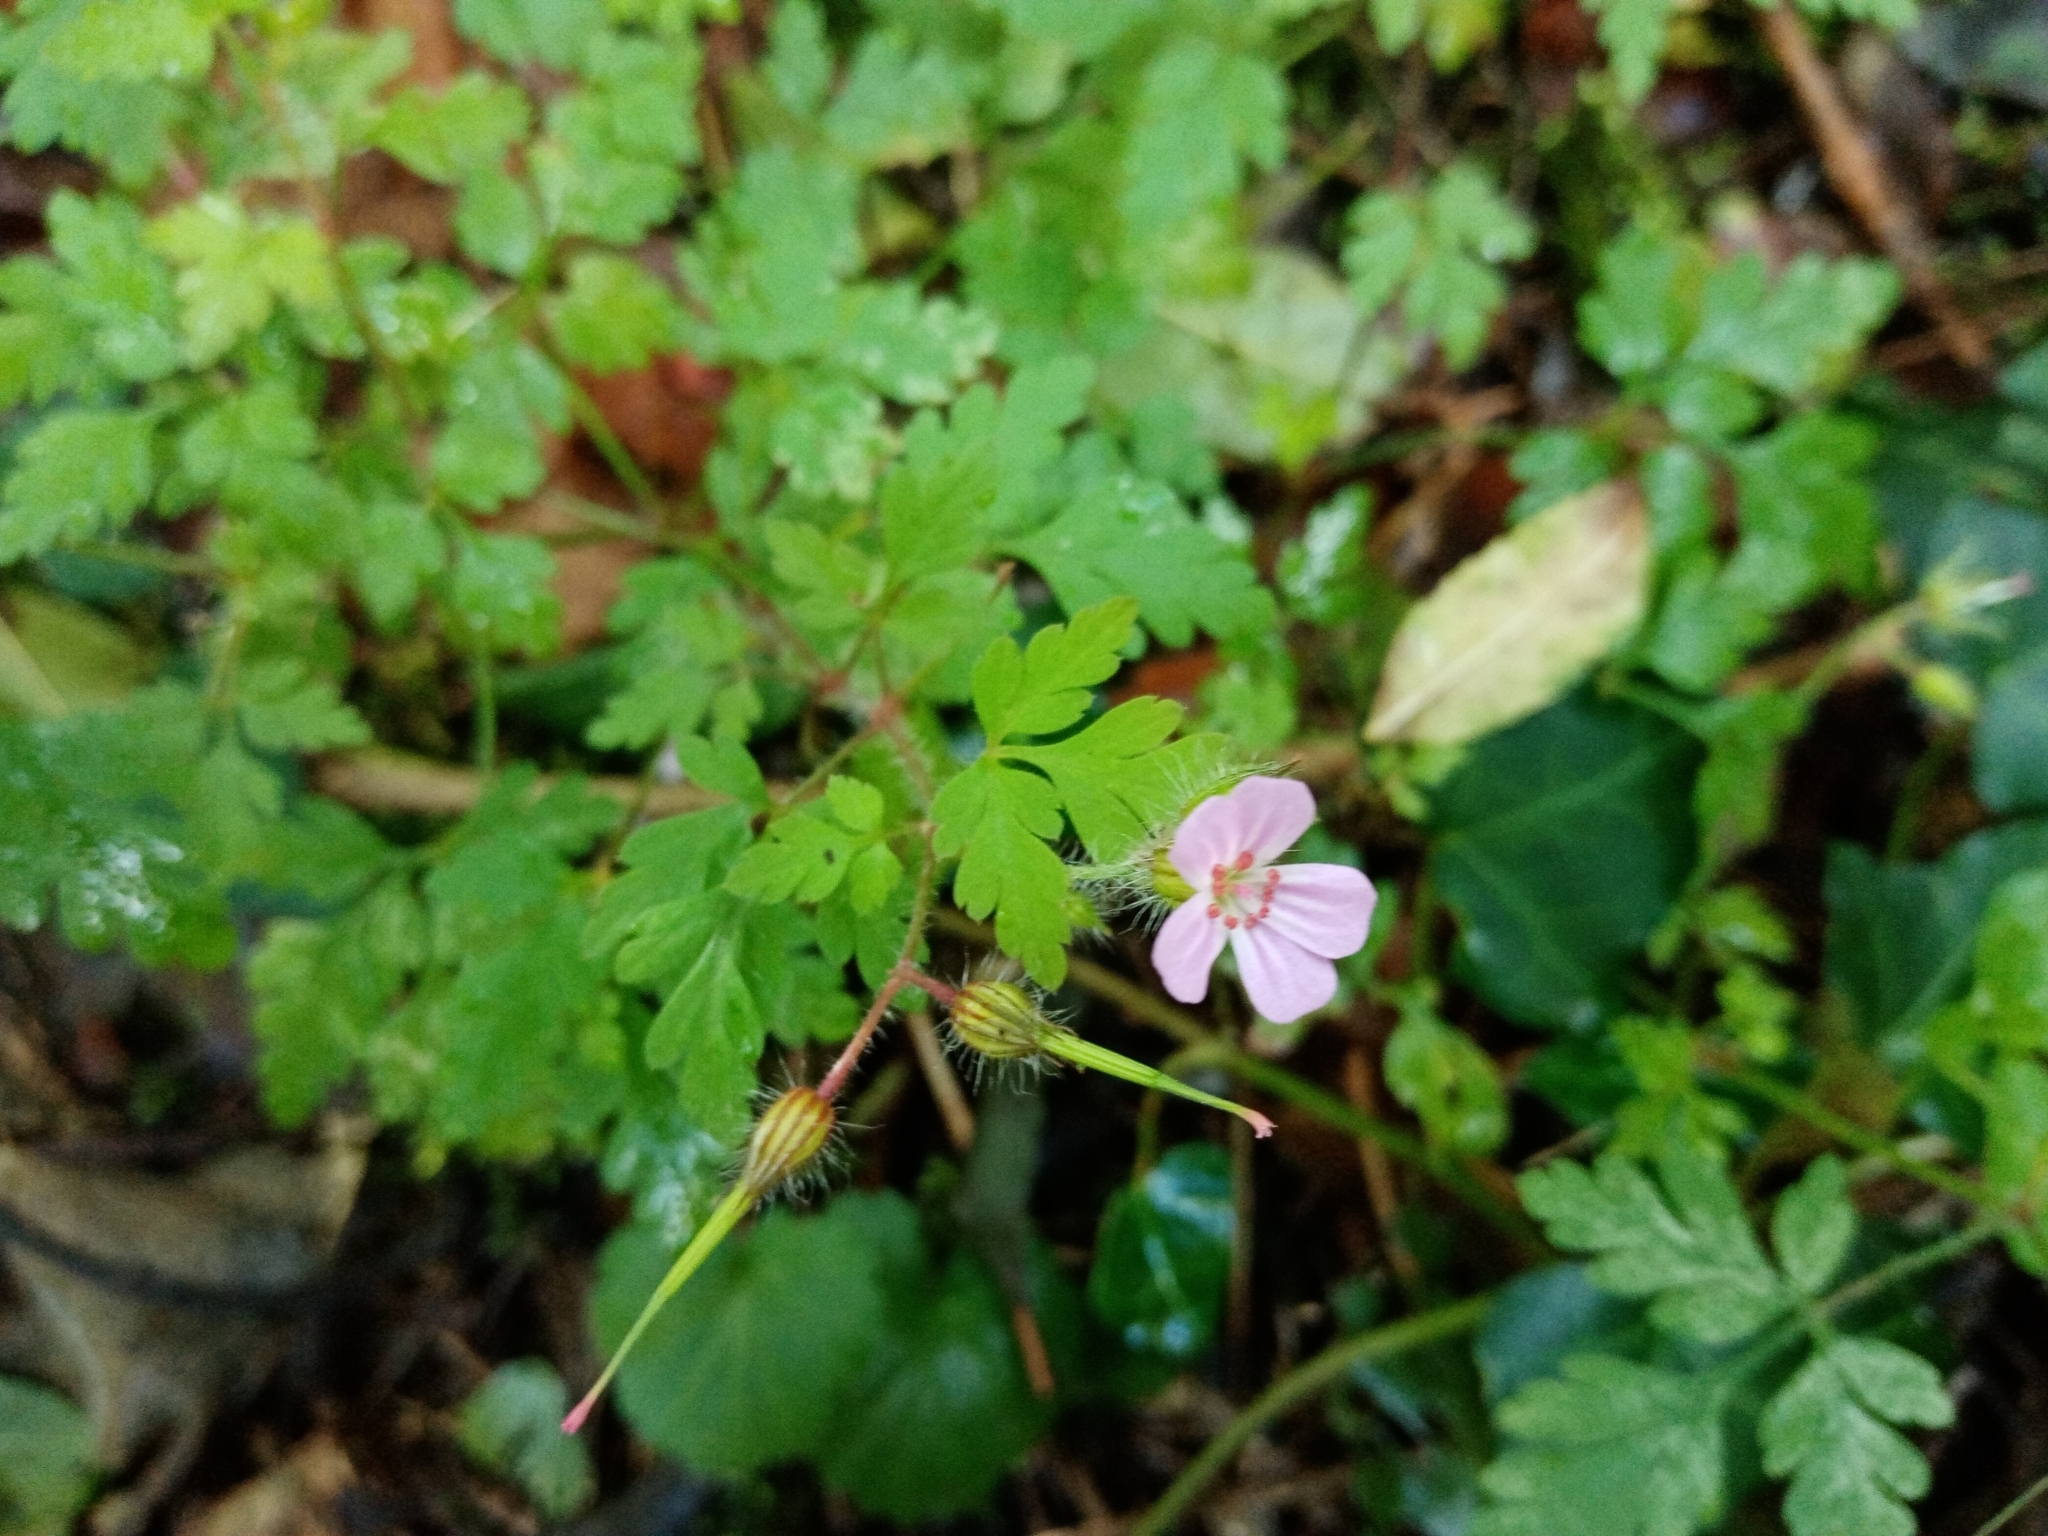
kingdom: Plantae
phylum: Tracheophyta
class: Magnoliopsida
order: Geraniales
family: Geraniaceae
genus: Geranium
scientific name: Geranium robertianum
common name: Herb-robert
